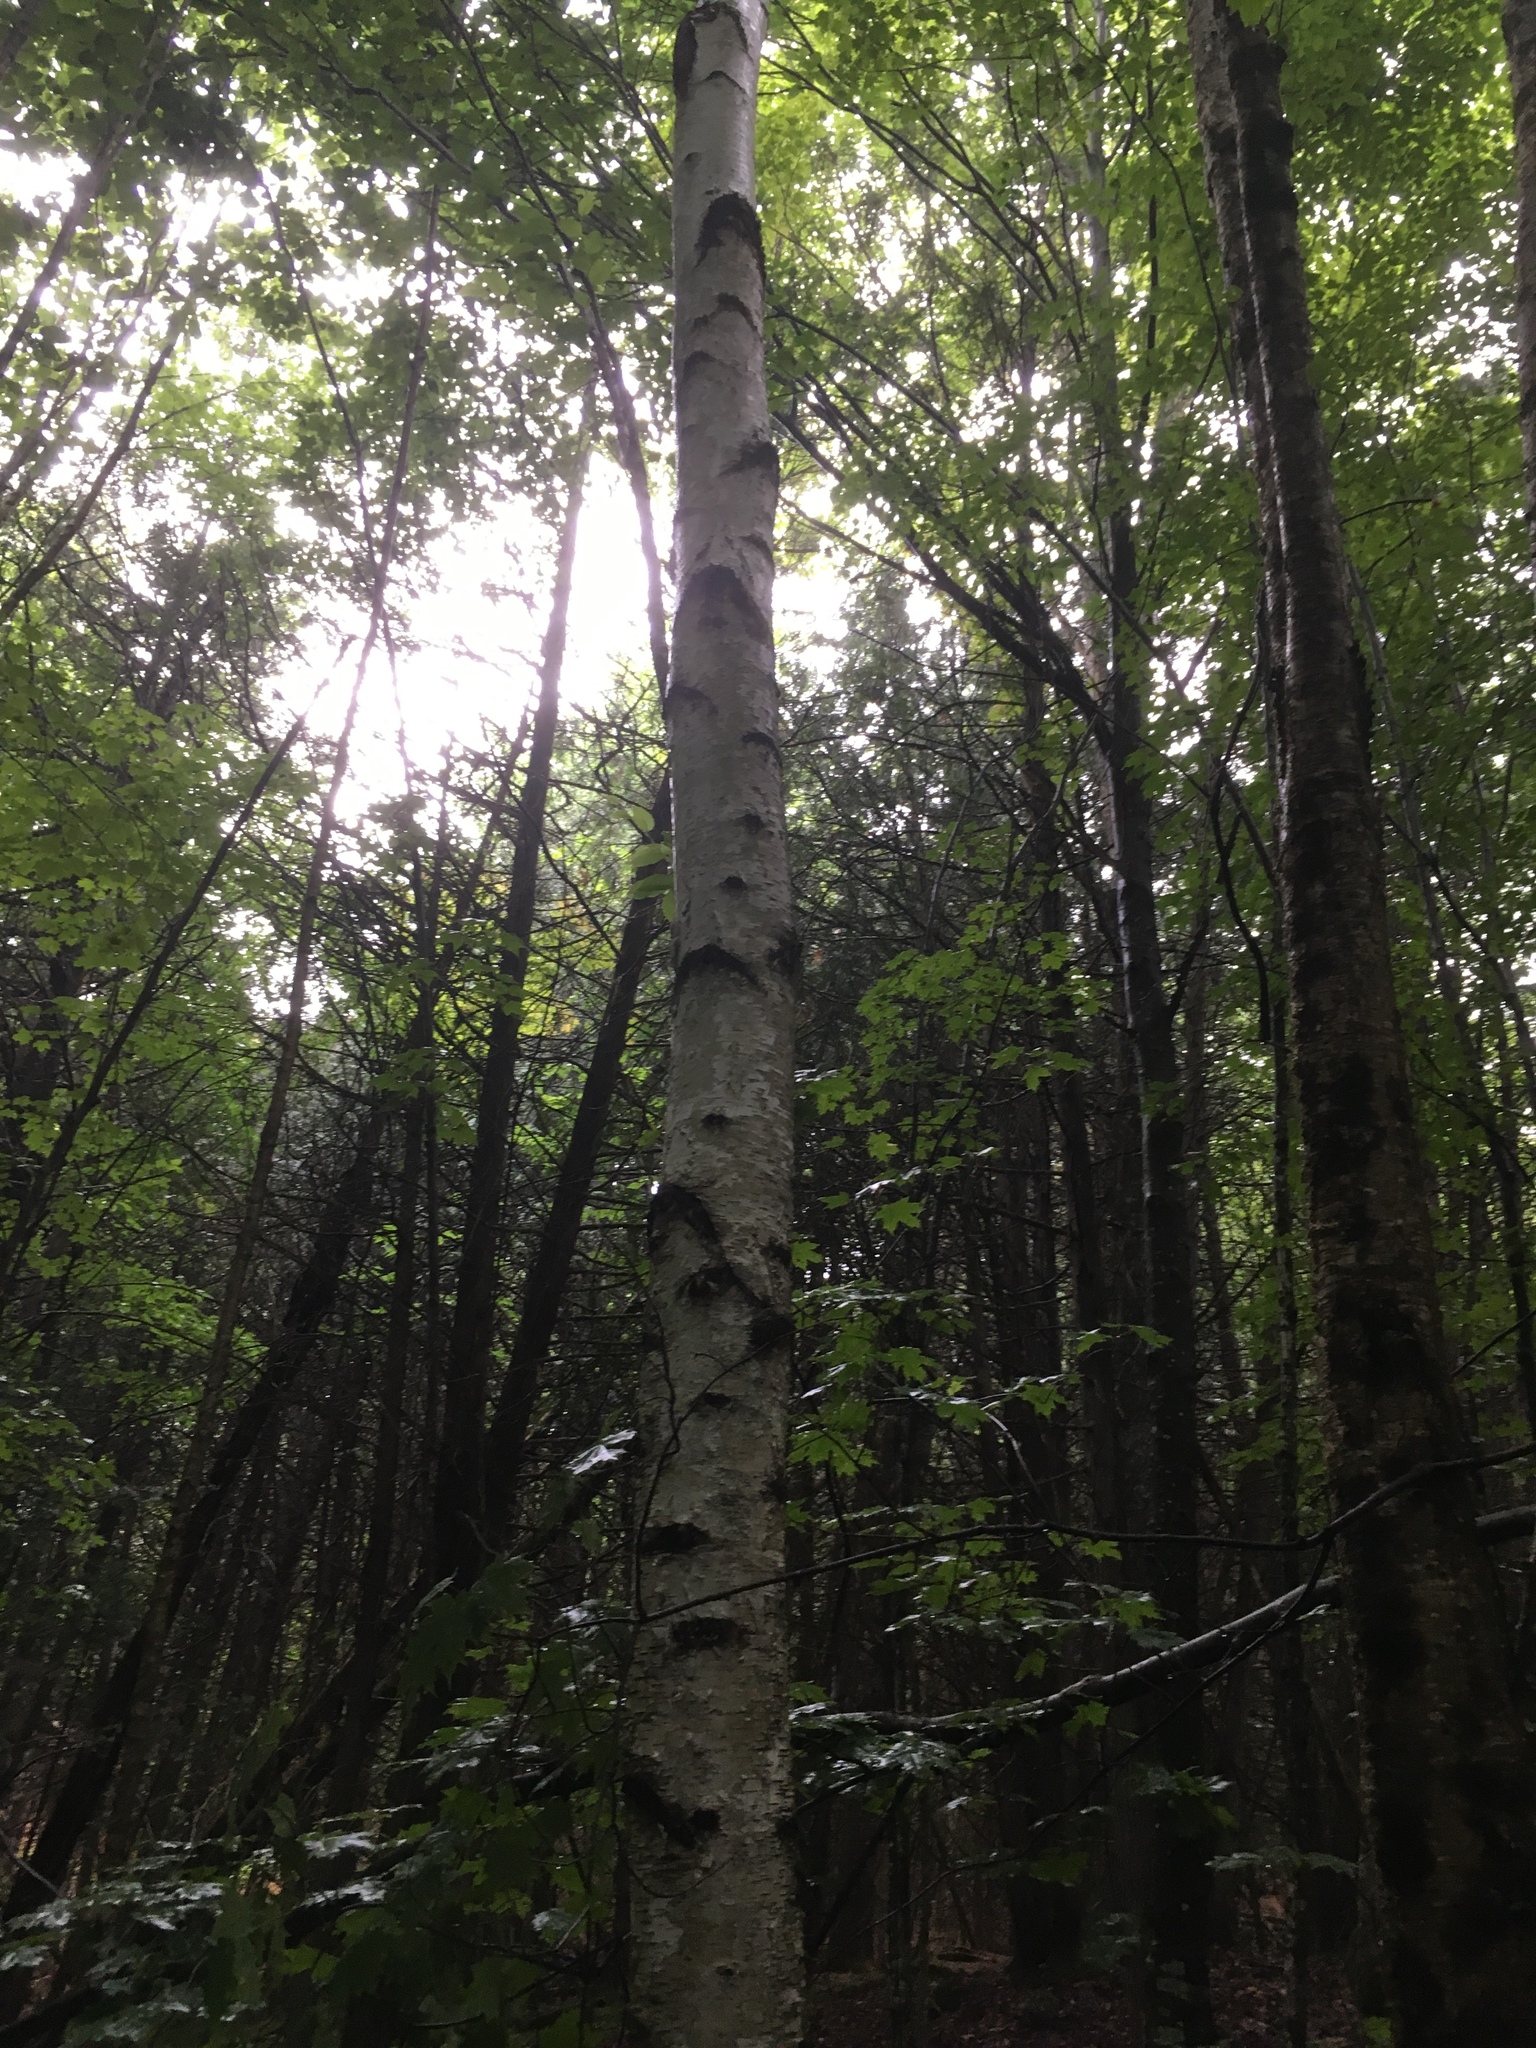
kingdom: Plantae
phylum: Tracheophyta
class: Magnoliopsida
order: Fagales
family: Betulaceae
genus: Betula
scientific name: Betula populifolia
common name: Fire birch
